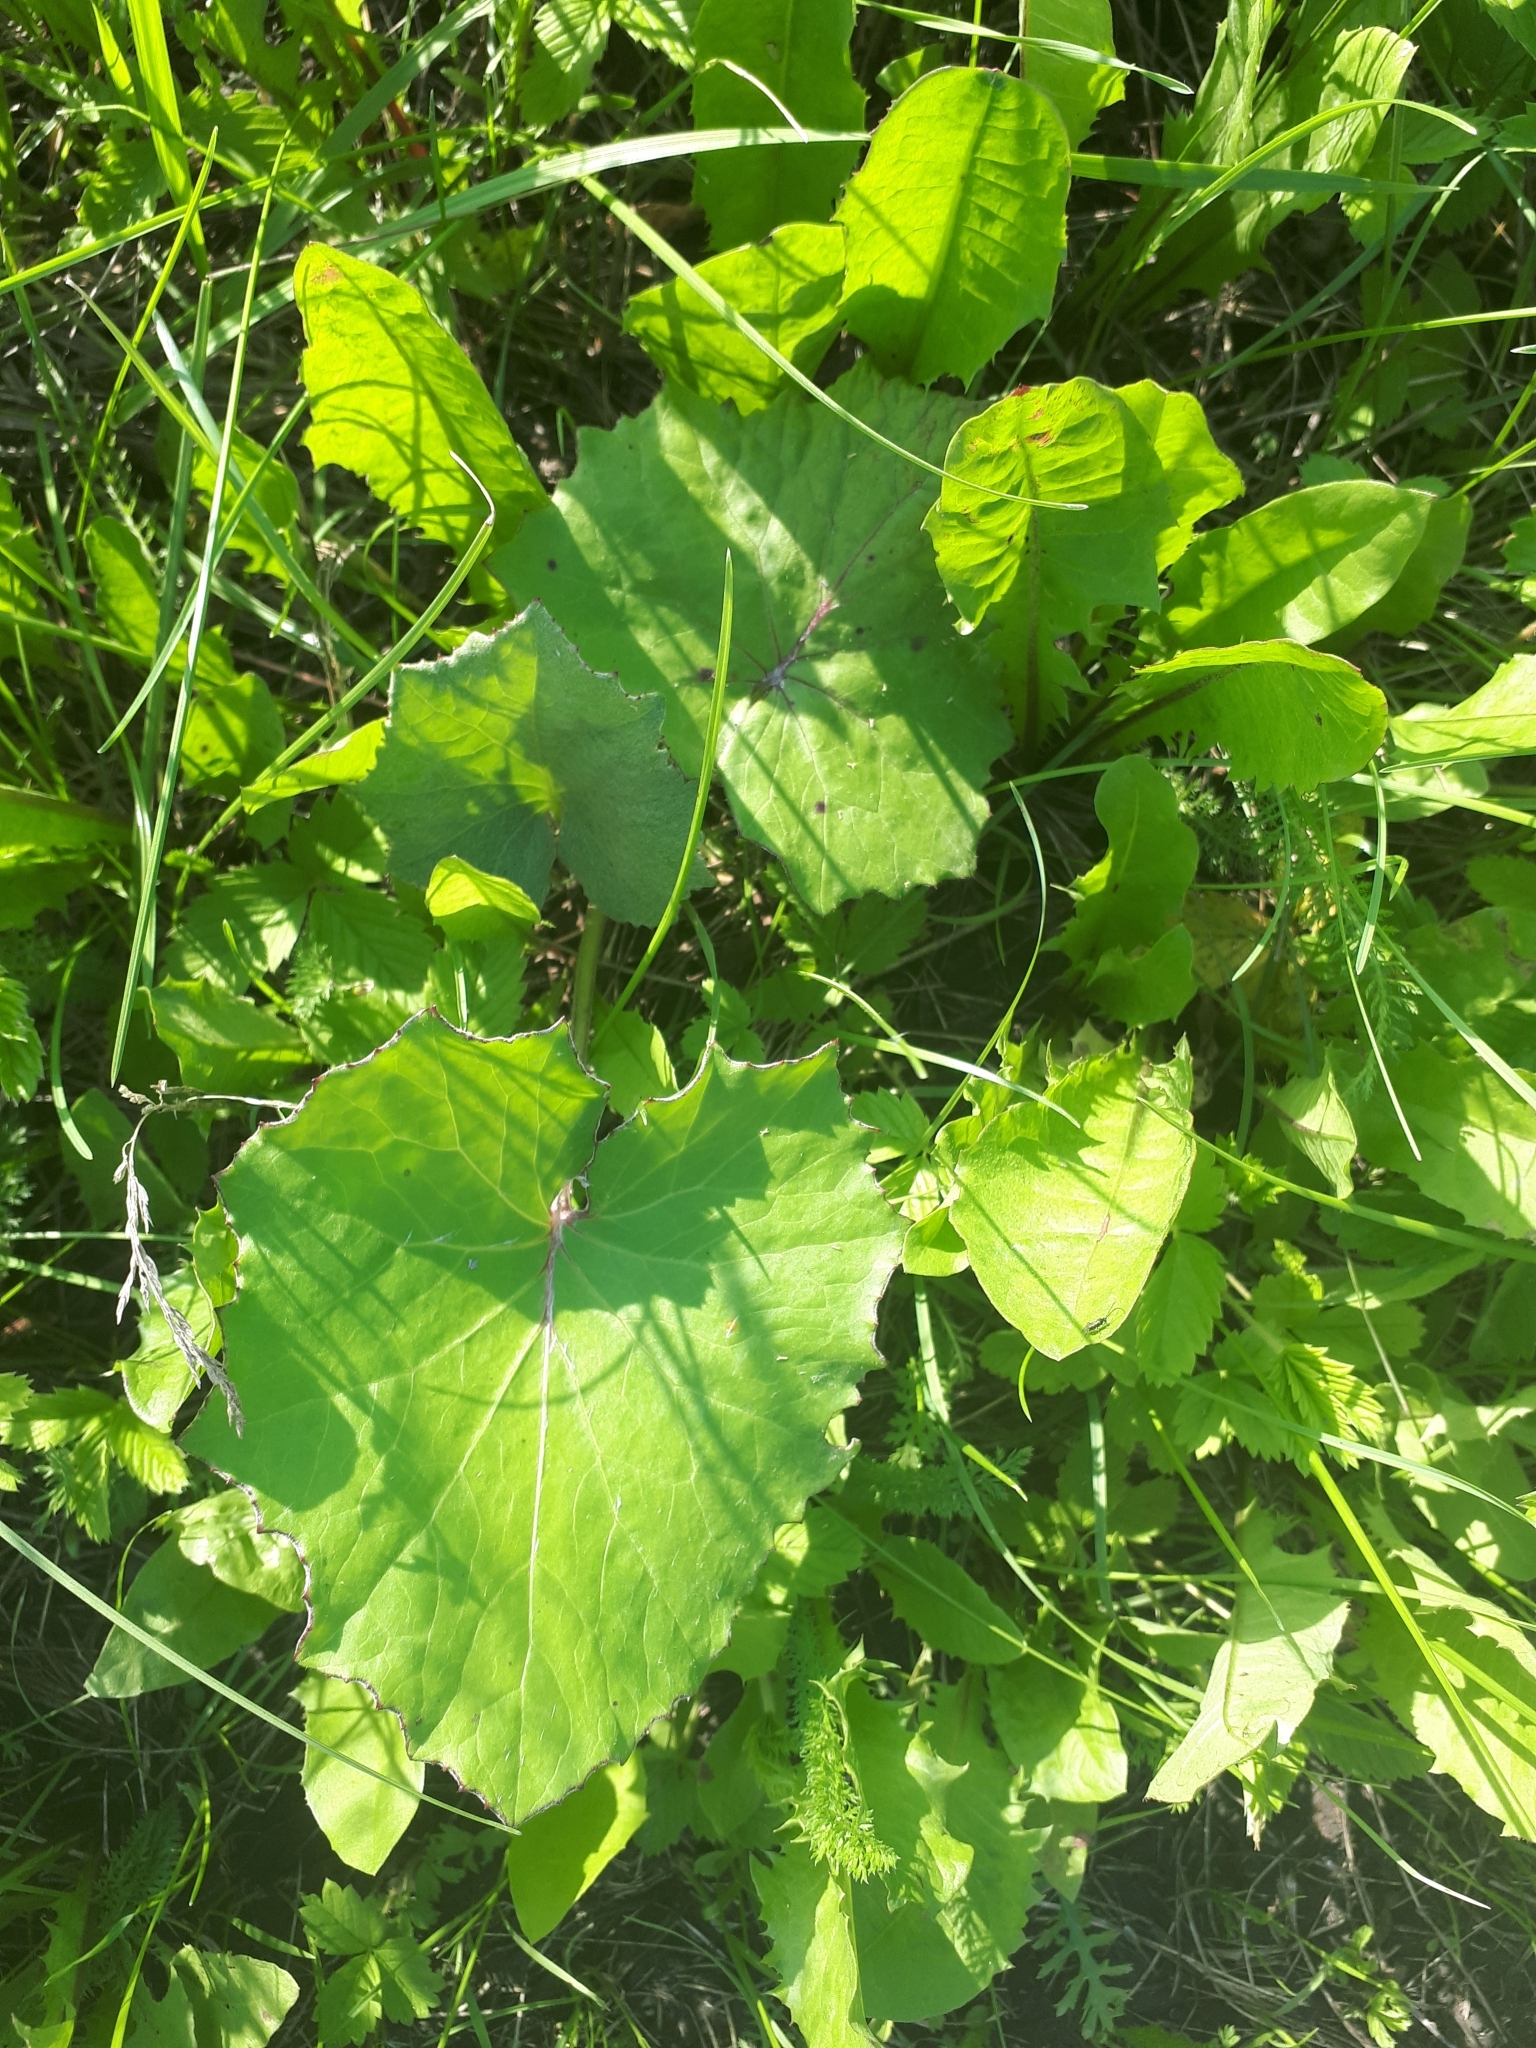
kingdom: Plantae
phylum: Tracheophyta
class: Magnoliopsida
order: Asterales
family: Asteraceae
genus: Tussilago
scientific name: Tussilago farfara
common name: Coltsfoot
